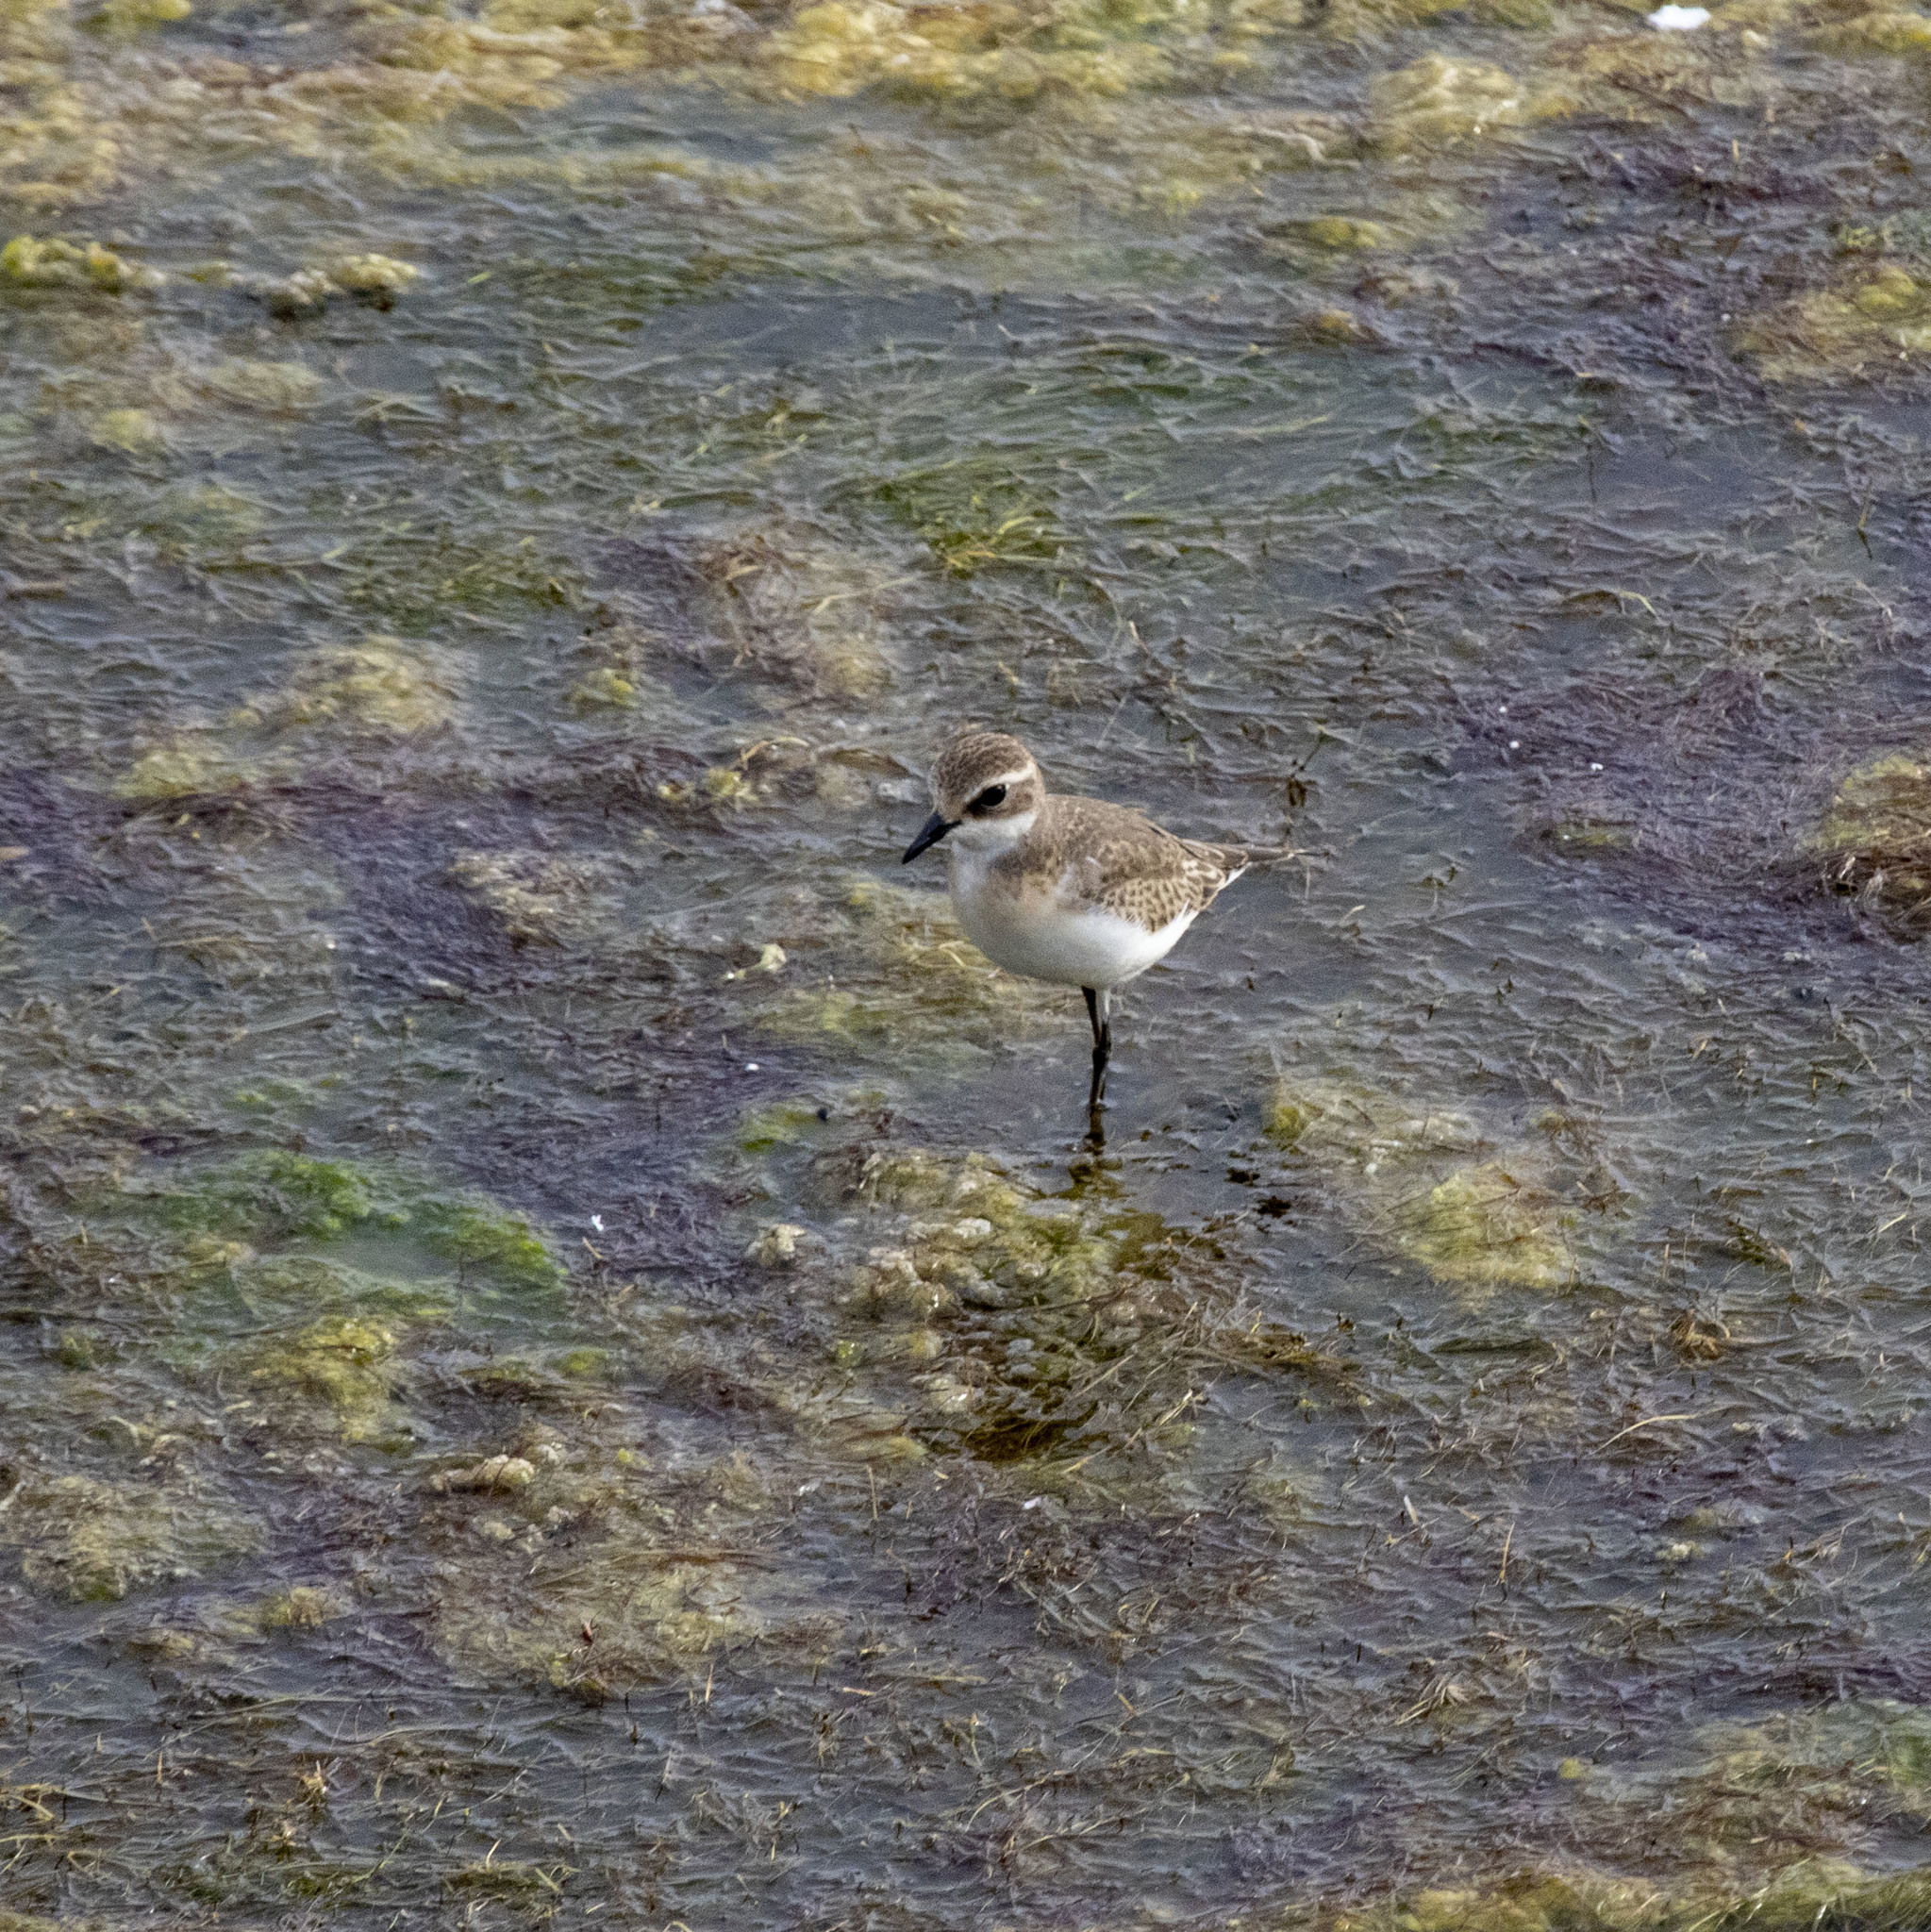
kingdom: Animalia
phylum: Chordata
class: Aves
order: Charadriiformes
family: Charadriidae
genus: Anarhynchus
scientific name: Anarhynchus
